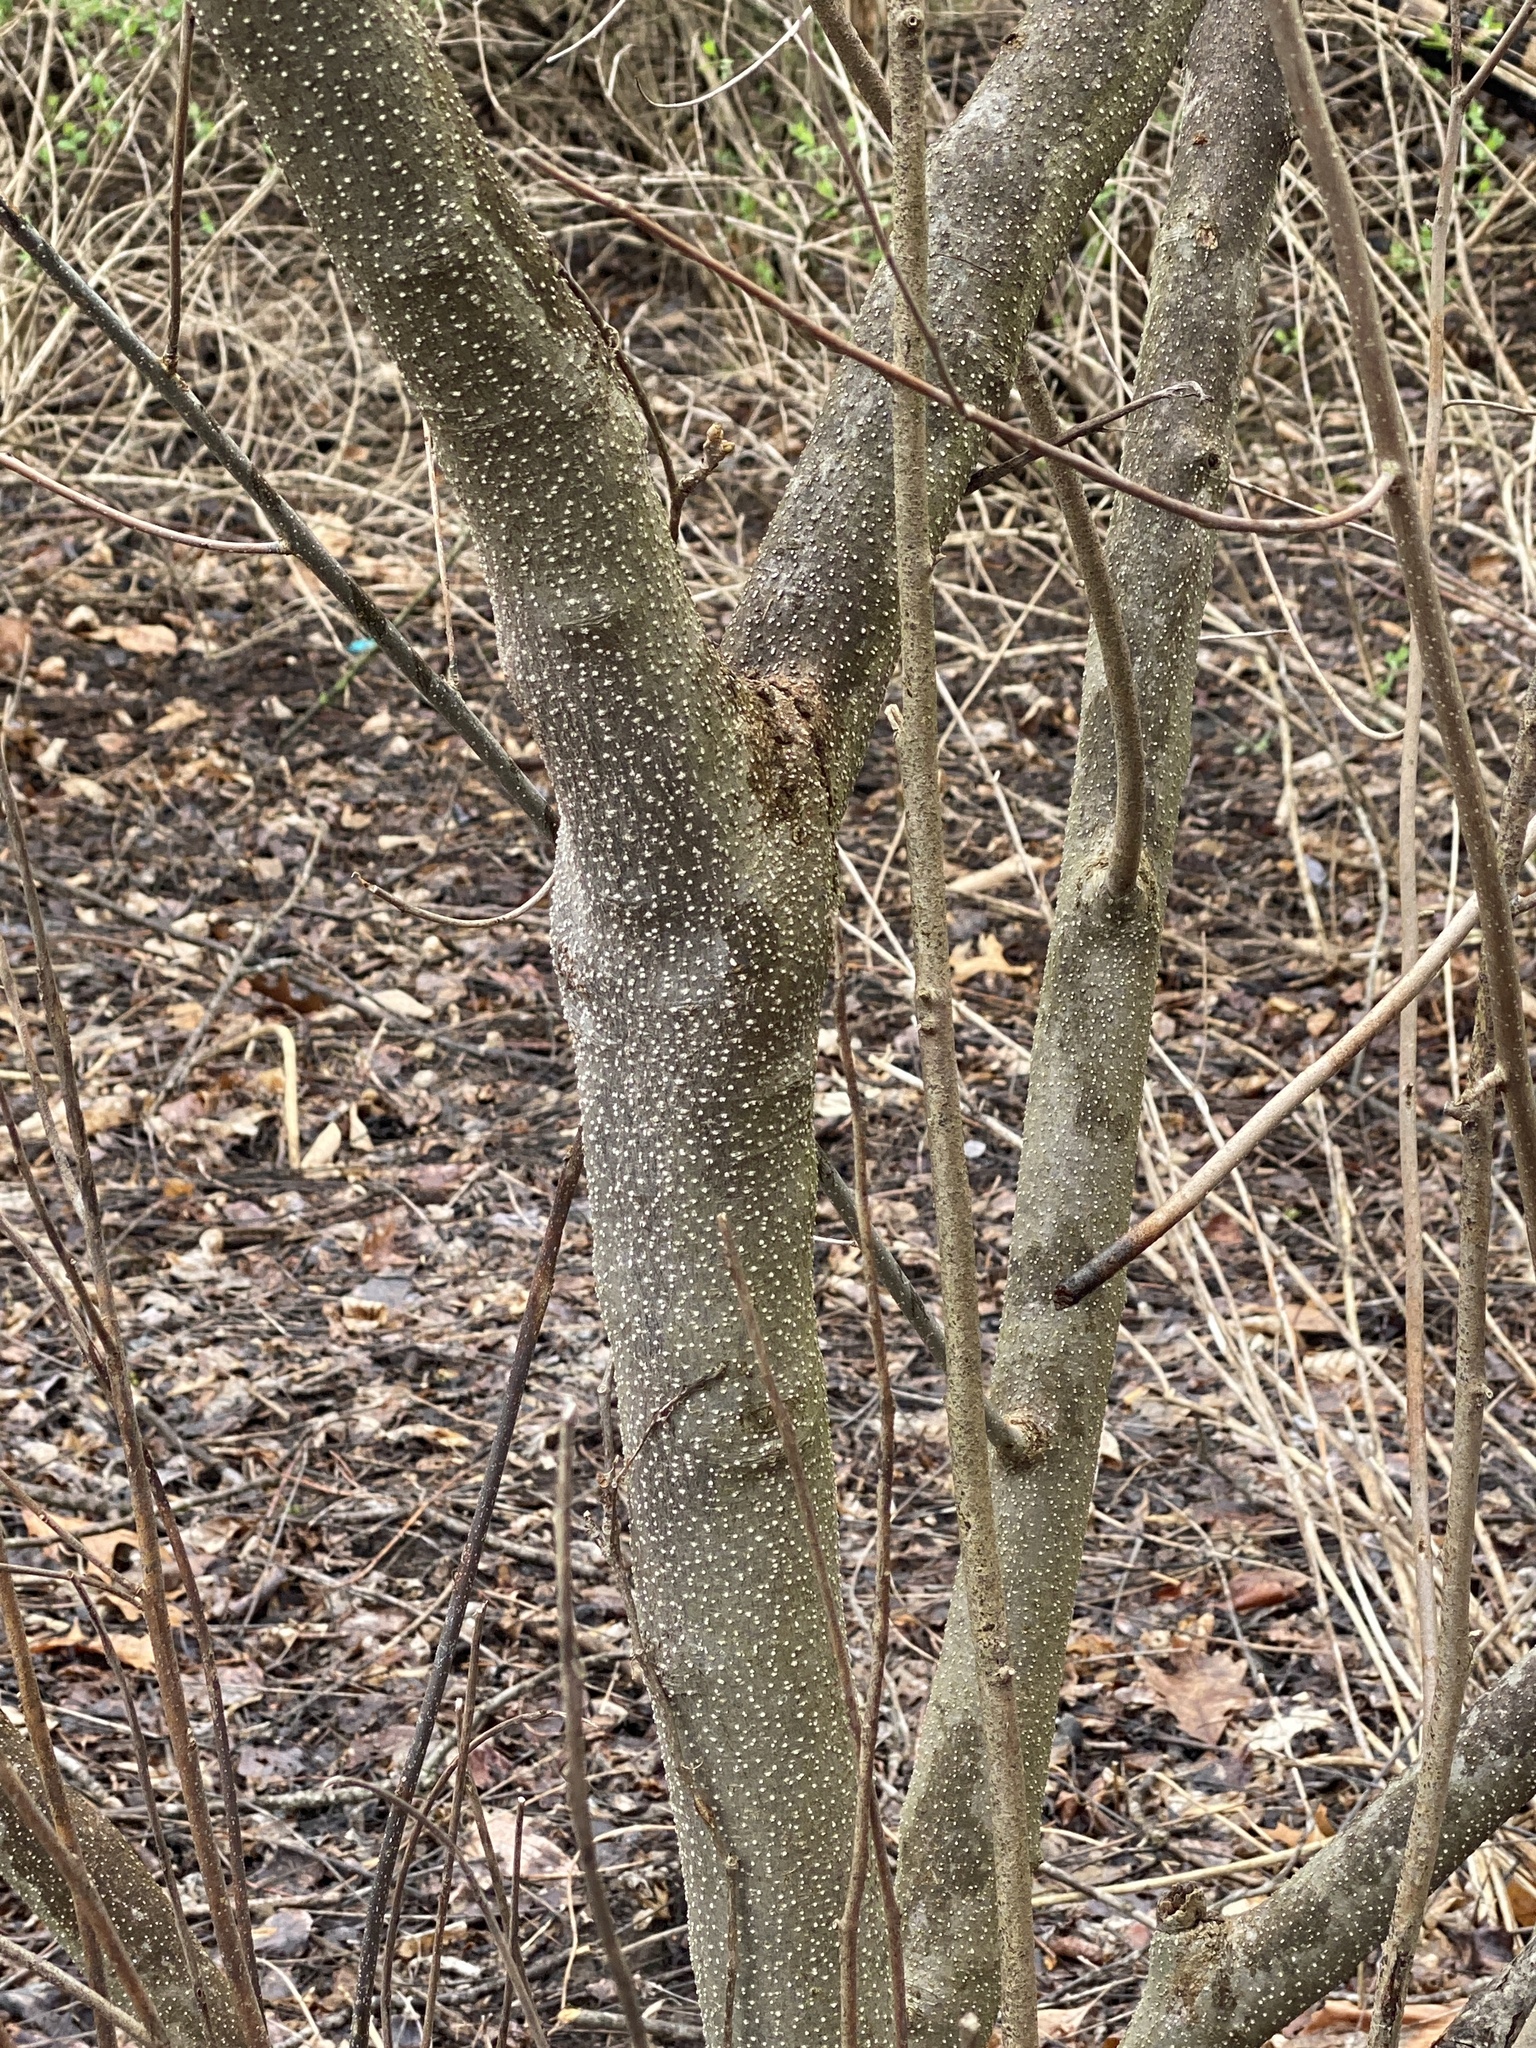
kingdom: Plantae
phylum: Tracheophyta
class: Magnoliopsida
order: Laurales
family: Lauraceae
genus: Lindera
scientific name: Lindera benzoin
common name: Spicebush
